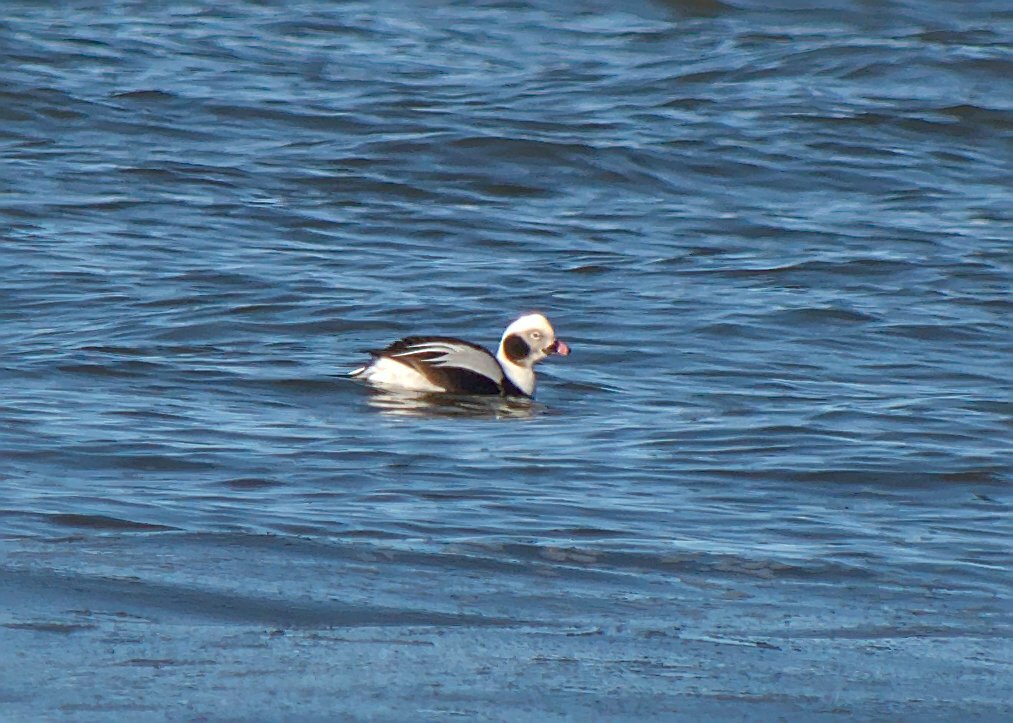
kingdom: Animalia
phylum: Chordata
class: Aves
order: Anseriformes
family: Anatidae
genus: Clangula
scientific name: Clangula hyemalis
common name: Long-tailed duck
